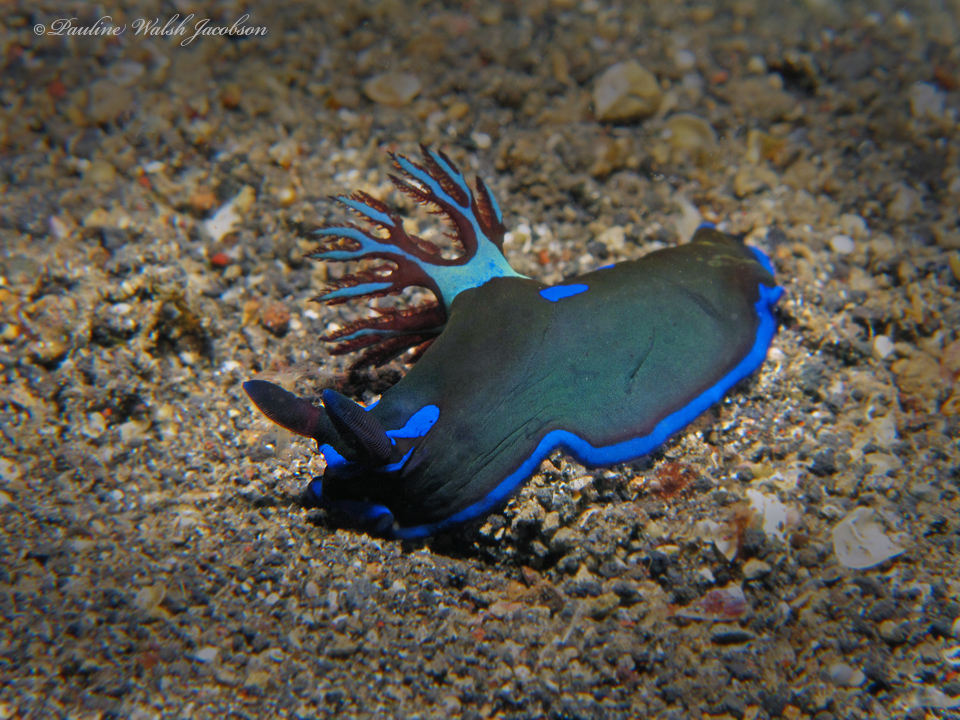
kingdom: Animalia
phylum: Mollusca
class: Gastropoda
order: Nudibranchia
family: Polyceridae
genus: Tambja
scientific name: Tambja morosa
